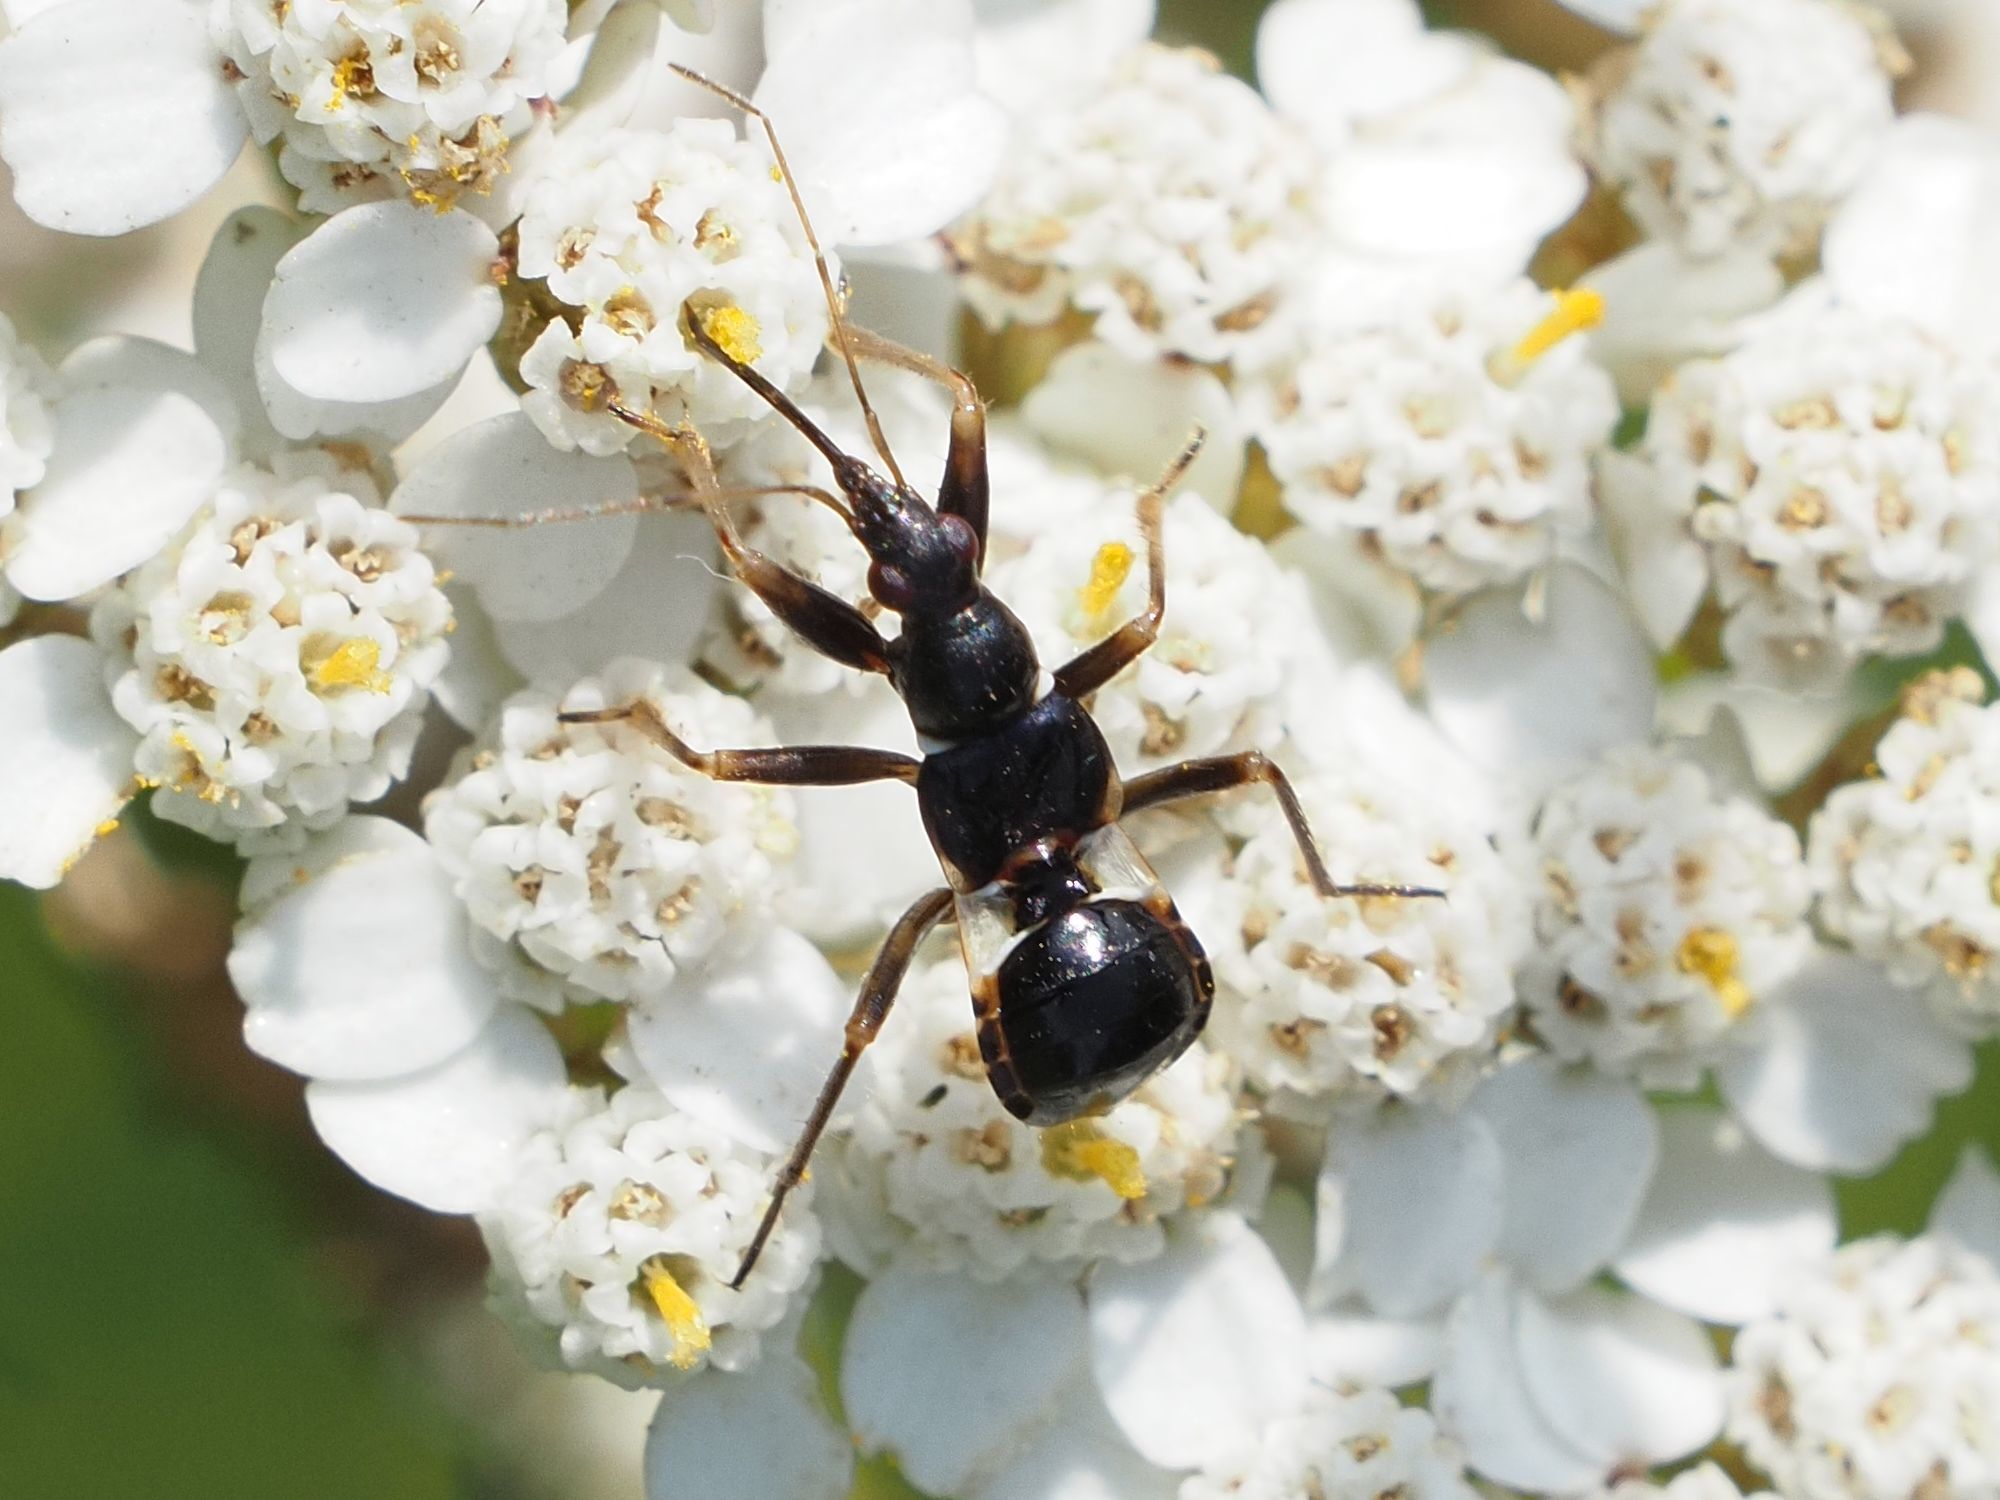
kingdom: Animalia
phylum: Arthropoda
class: Insecta
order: Hemiptera
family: Nabidae
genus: Himacerus
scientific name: Himacerus mirmicoides
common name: Ant damsel bug
